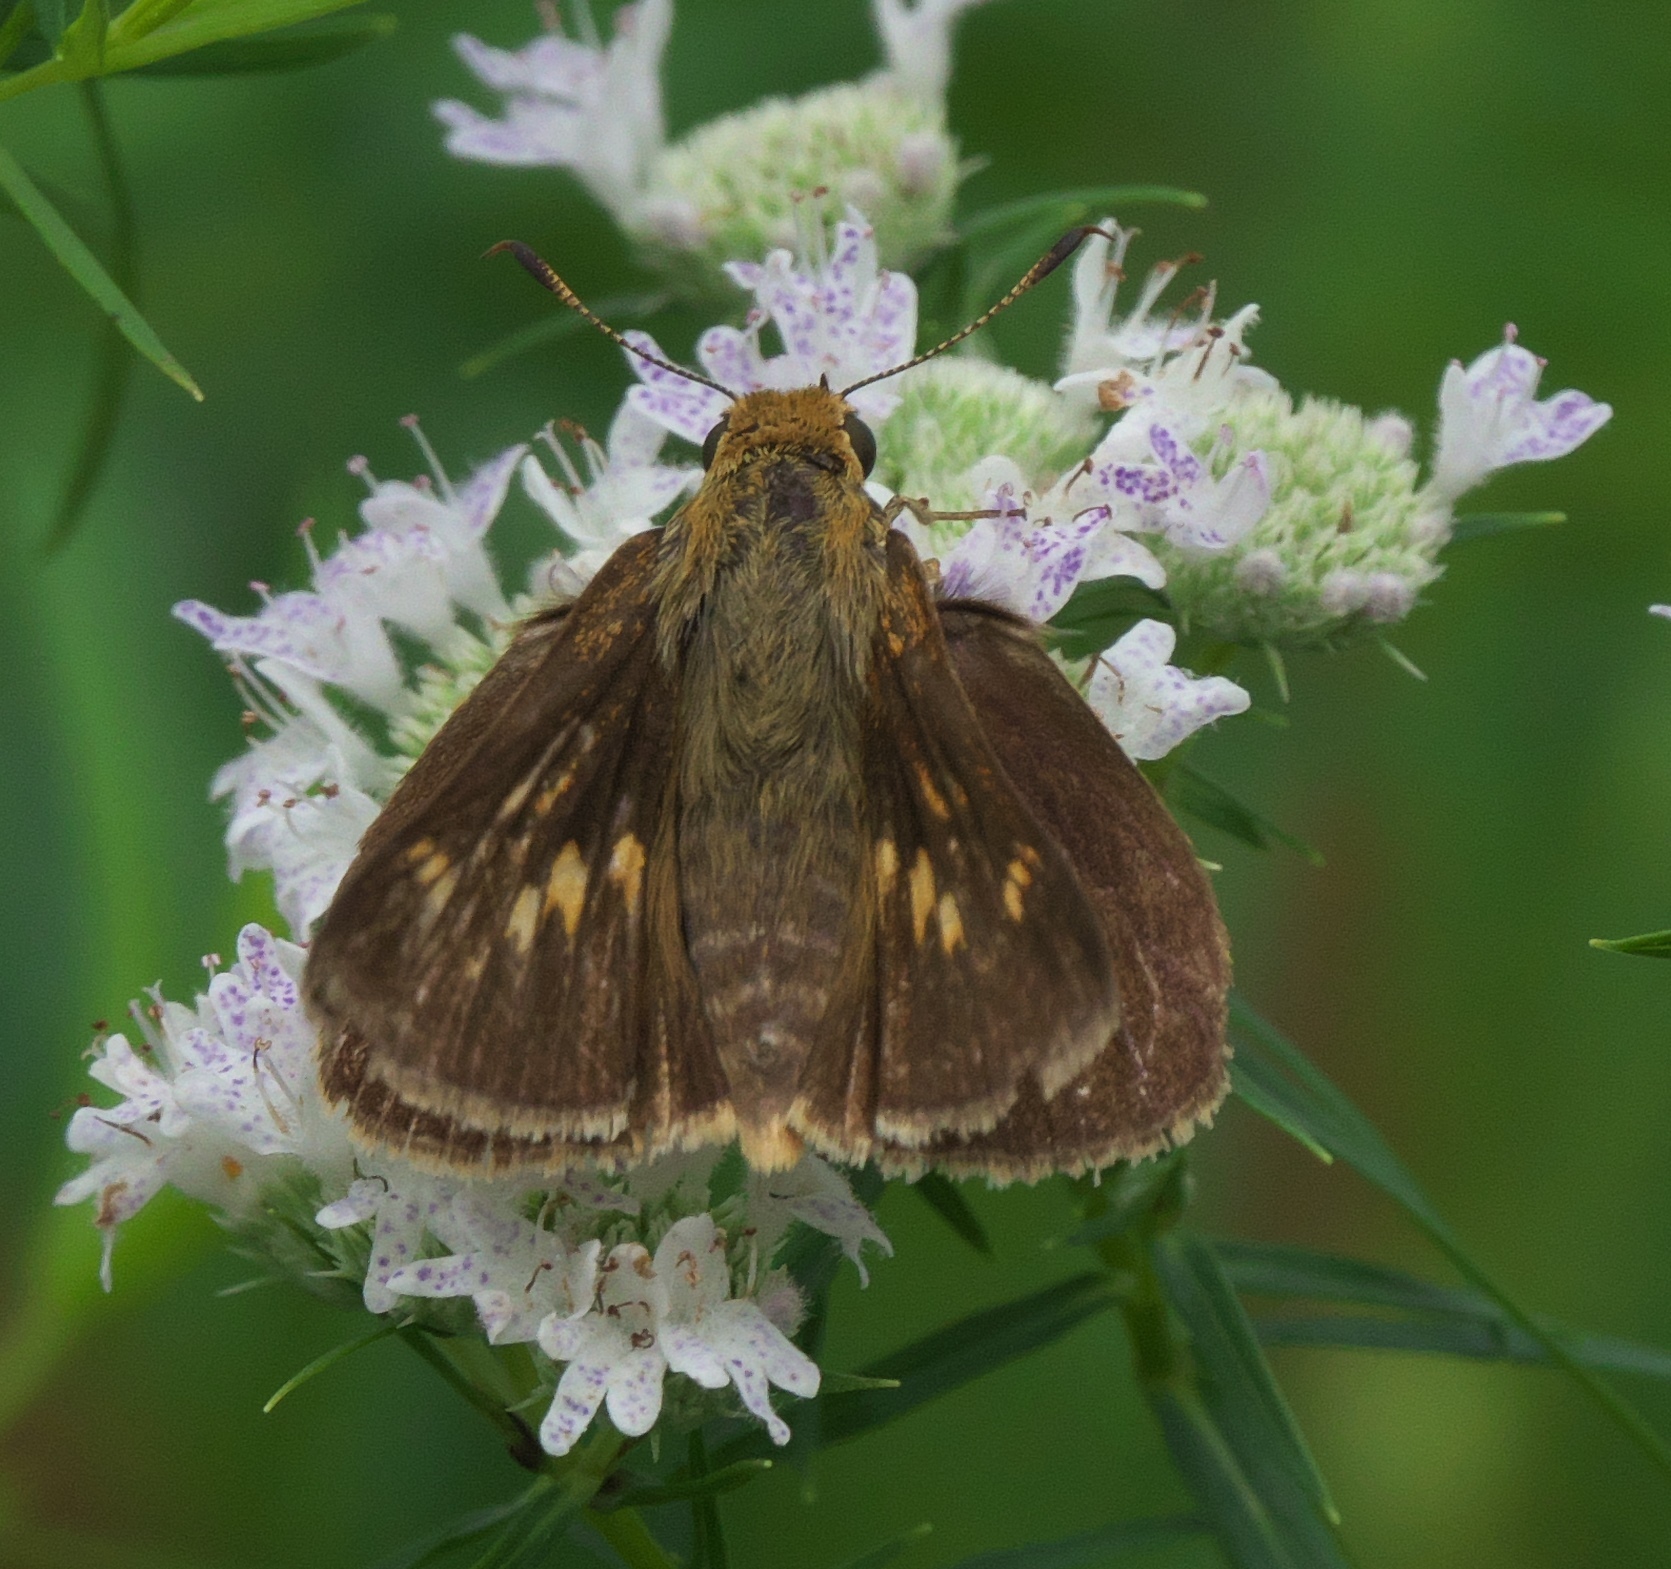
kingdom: Animalia
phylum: Arthropoda
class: Insecta
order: Lepidoptera
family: Hesperiidae
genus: Euphyes
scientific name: Euphyes dion
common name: Dion skipper
